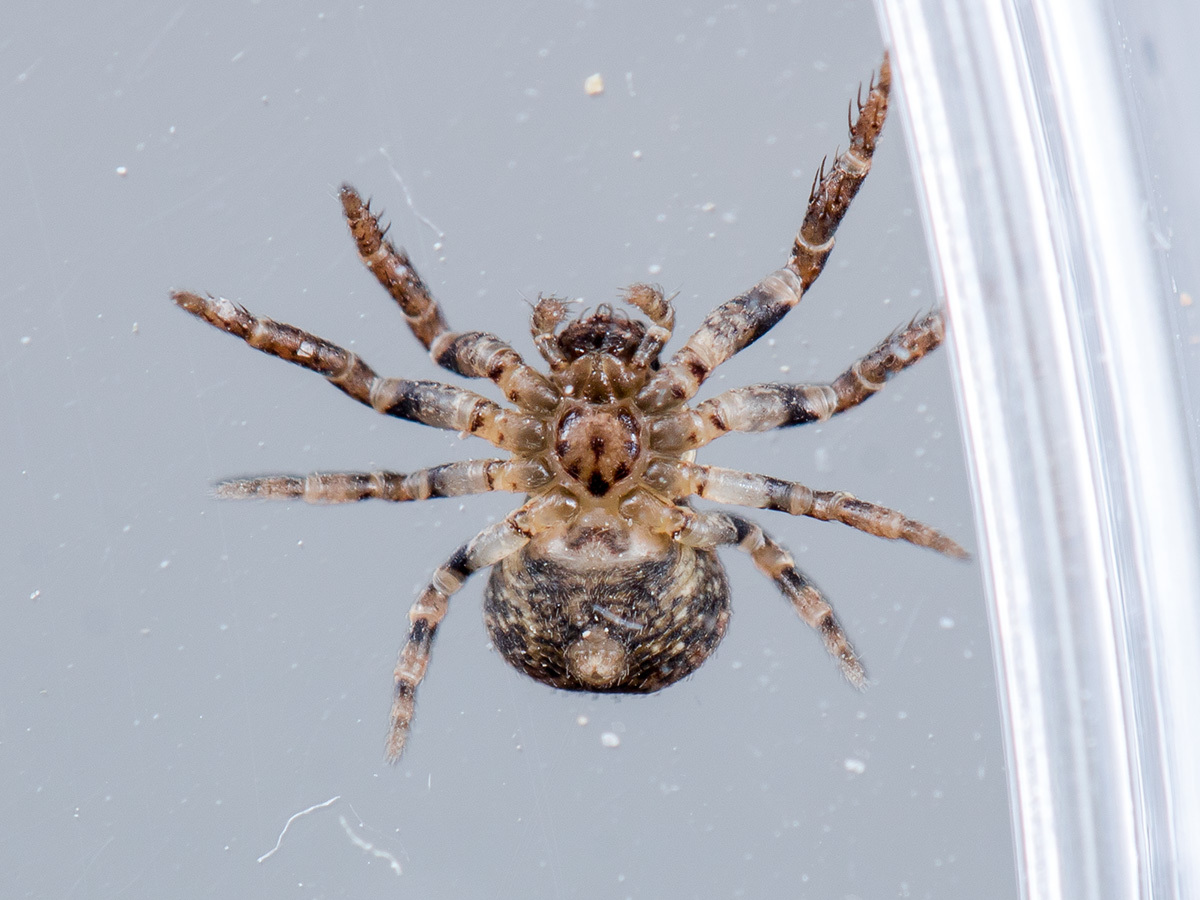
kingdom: Animalia
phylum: Arthropoda
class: Arachnida
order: Araneae
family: Thomisidae
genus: Ozyptila
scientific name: Ozyptila praticola
